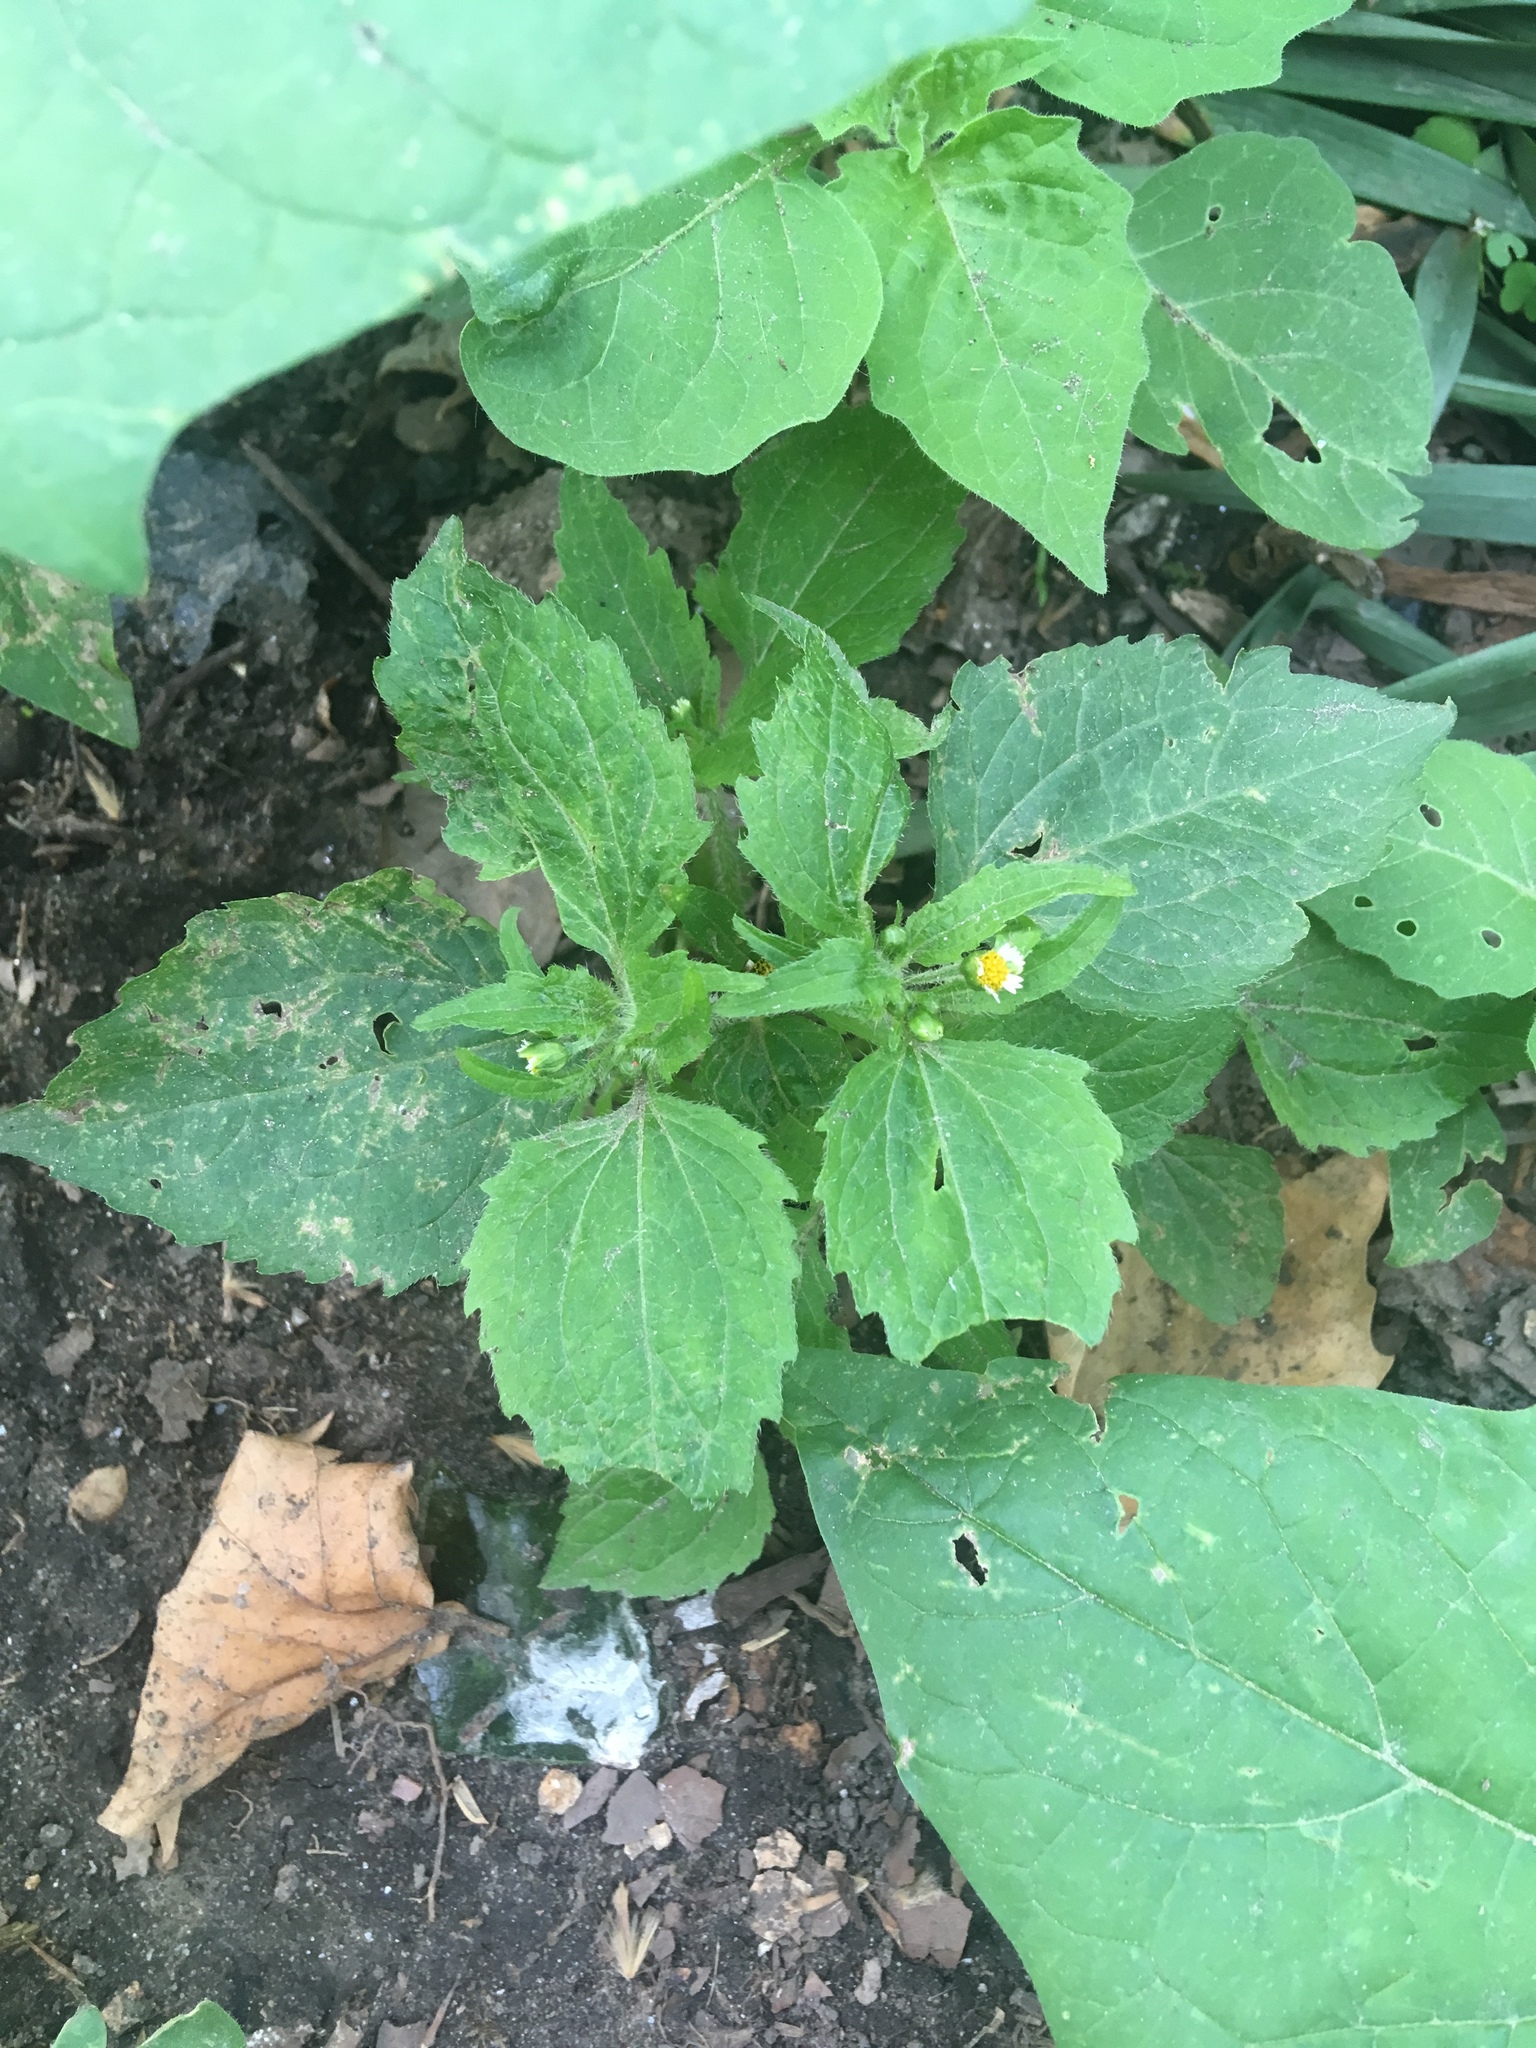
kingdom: Plantae
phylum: Tracheophyta
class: Magnoliopsida
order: Asterales
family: Asteraceae
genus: Galinsoga
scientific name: Galinsoga quadriradiata
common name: Shaggy soldier
